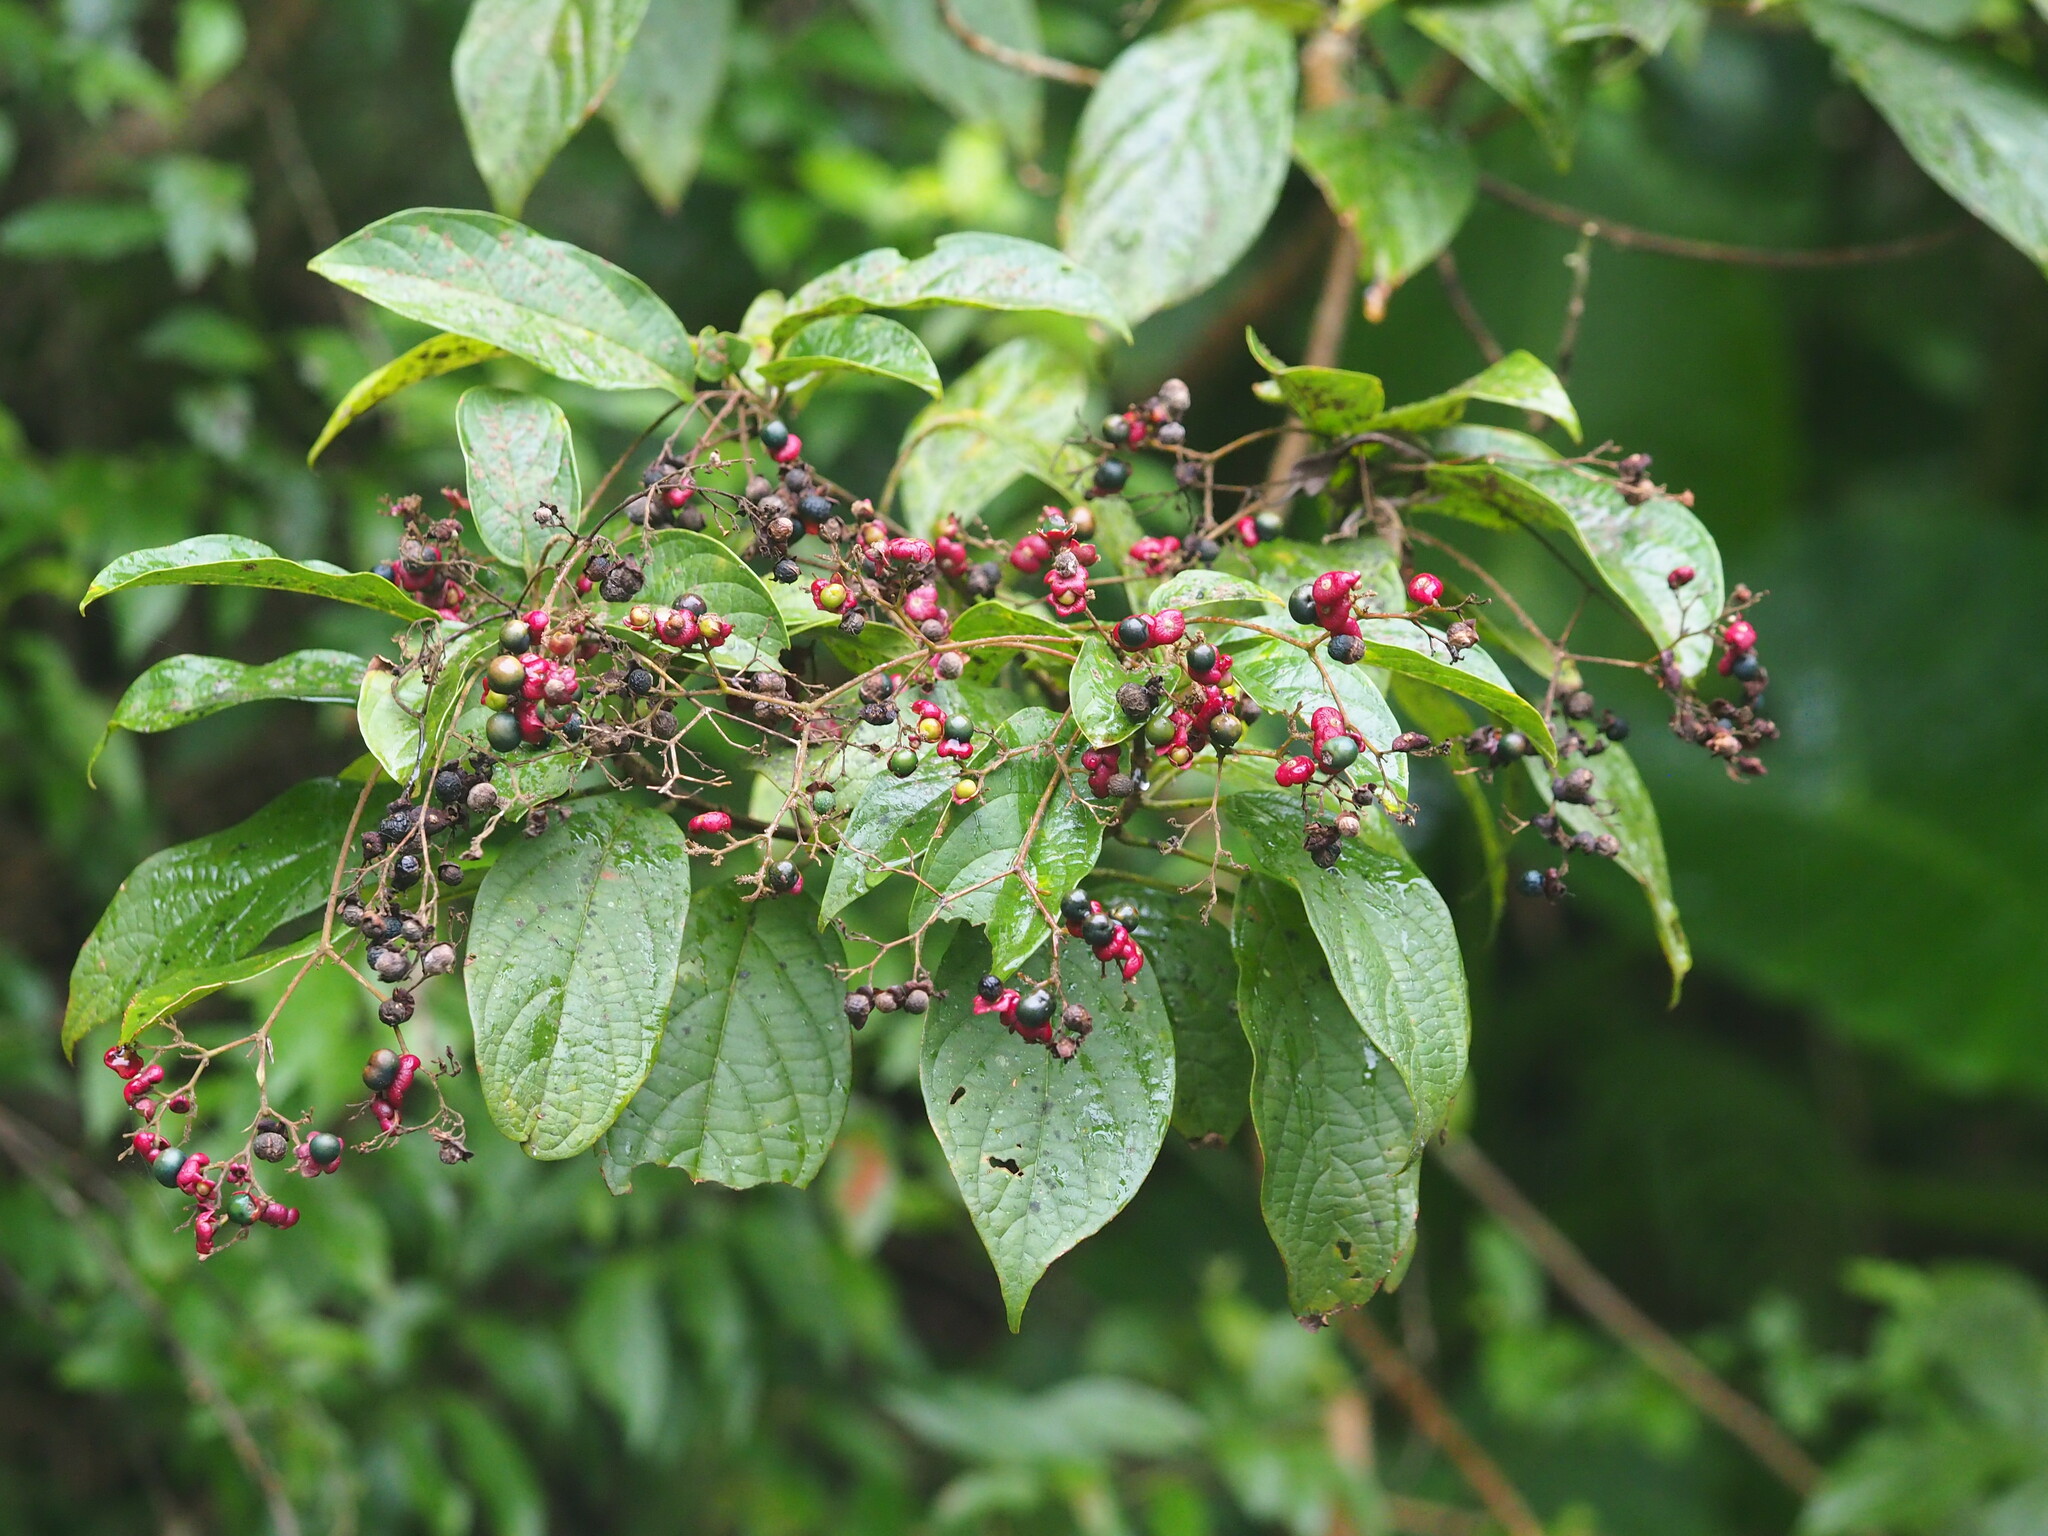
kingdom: Plantae
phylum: Tracheophyta
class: Magnoliopsida
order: Lamiales
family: Lamiaceae
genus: Clerodendrum
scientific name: Clerodendrum cyrtophyllum
